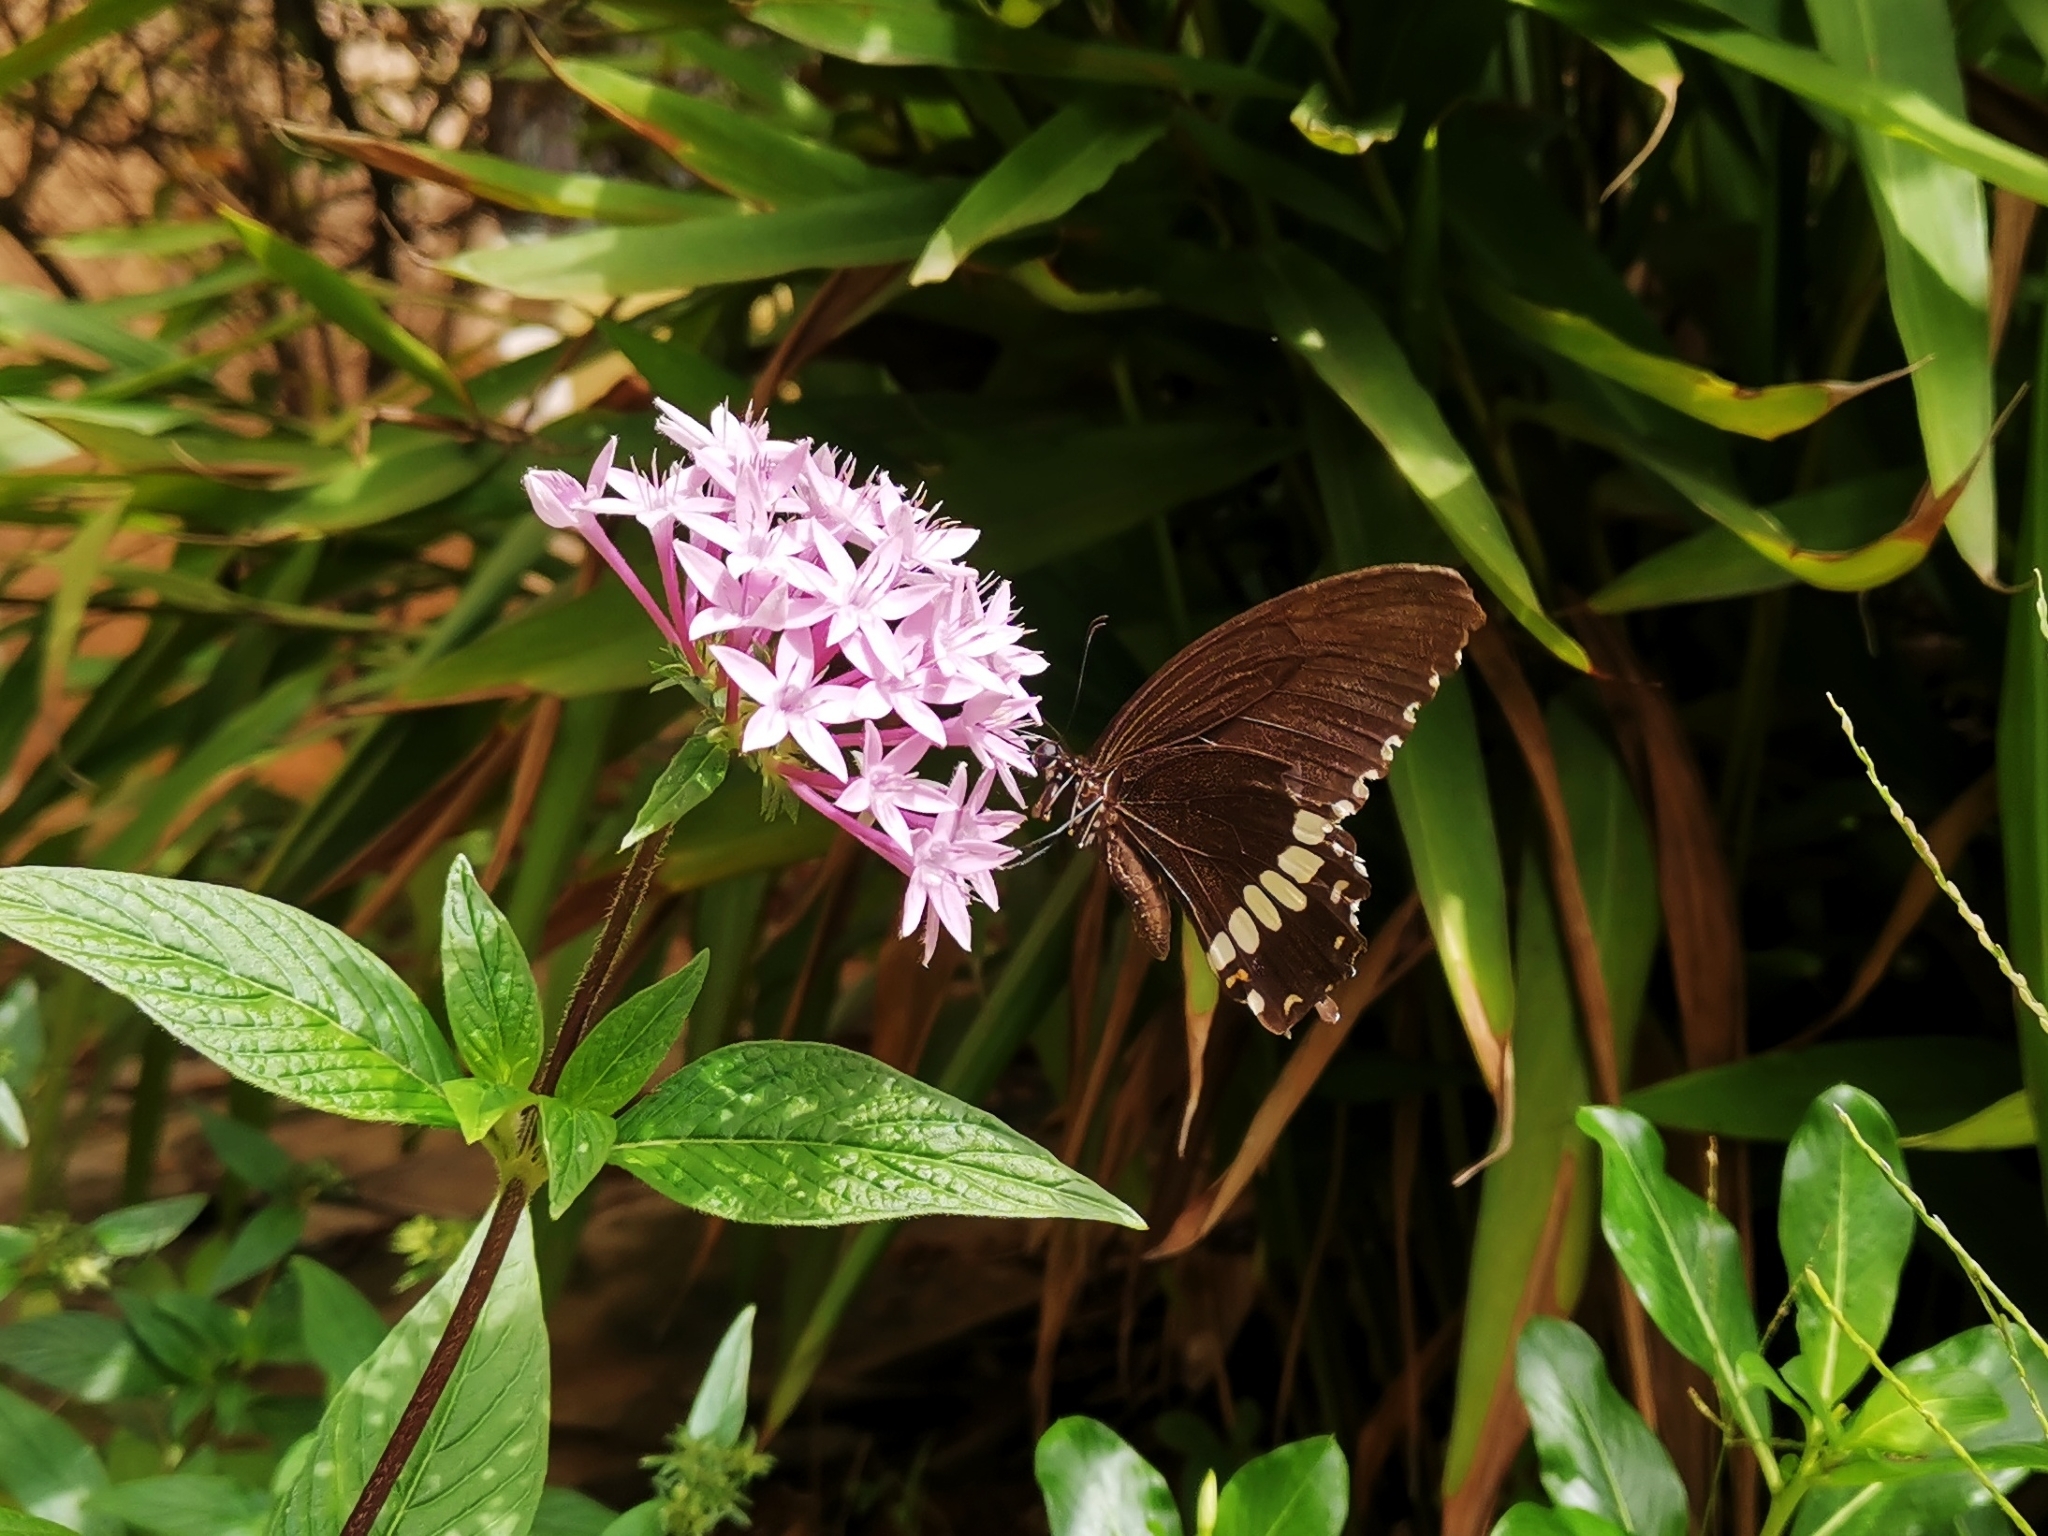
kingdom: Animalia
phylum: Arthropoda
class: Insecta
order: Lepidoptera
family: Papilionidae
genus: Papilio
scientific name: Papilio polytes
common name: Common mormon
